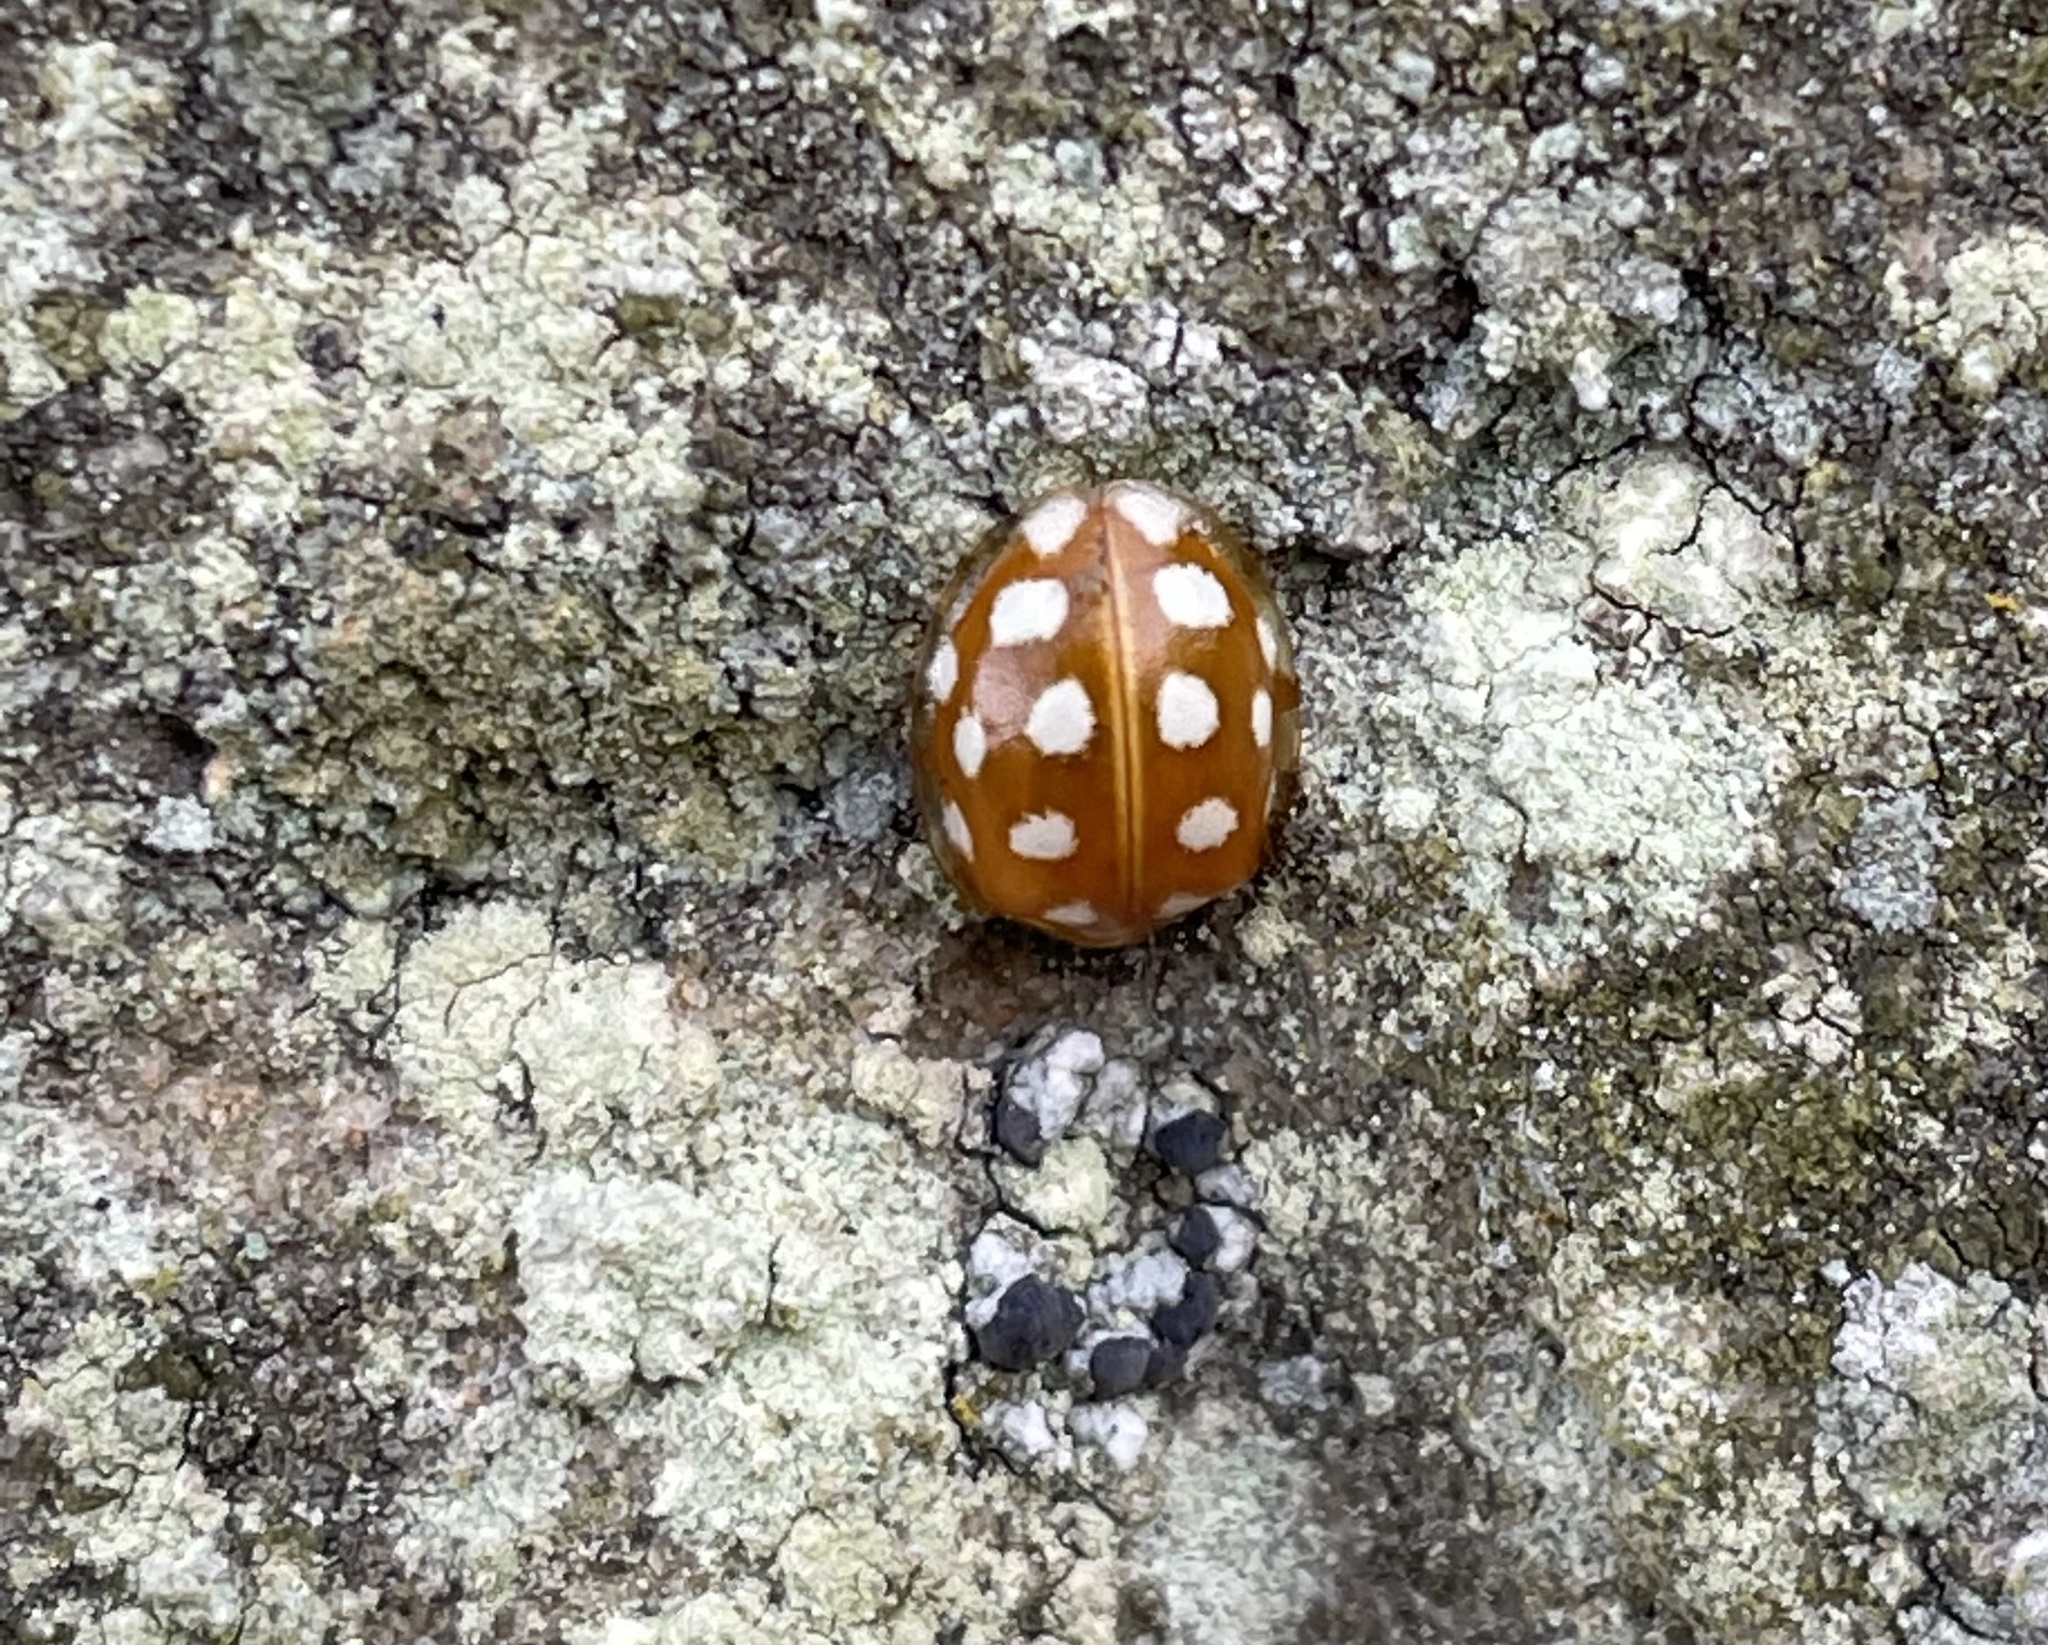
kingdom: Animalia
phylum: Arthropoda
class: Insecta
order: Coleoptera
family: Coccinellidae
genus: Halyzia
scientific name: Halyzia sedecimguttata
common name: Orange ladybird
